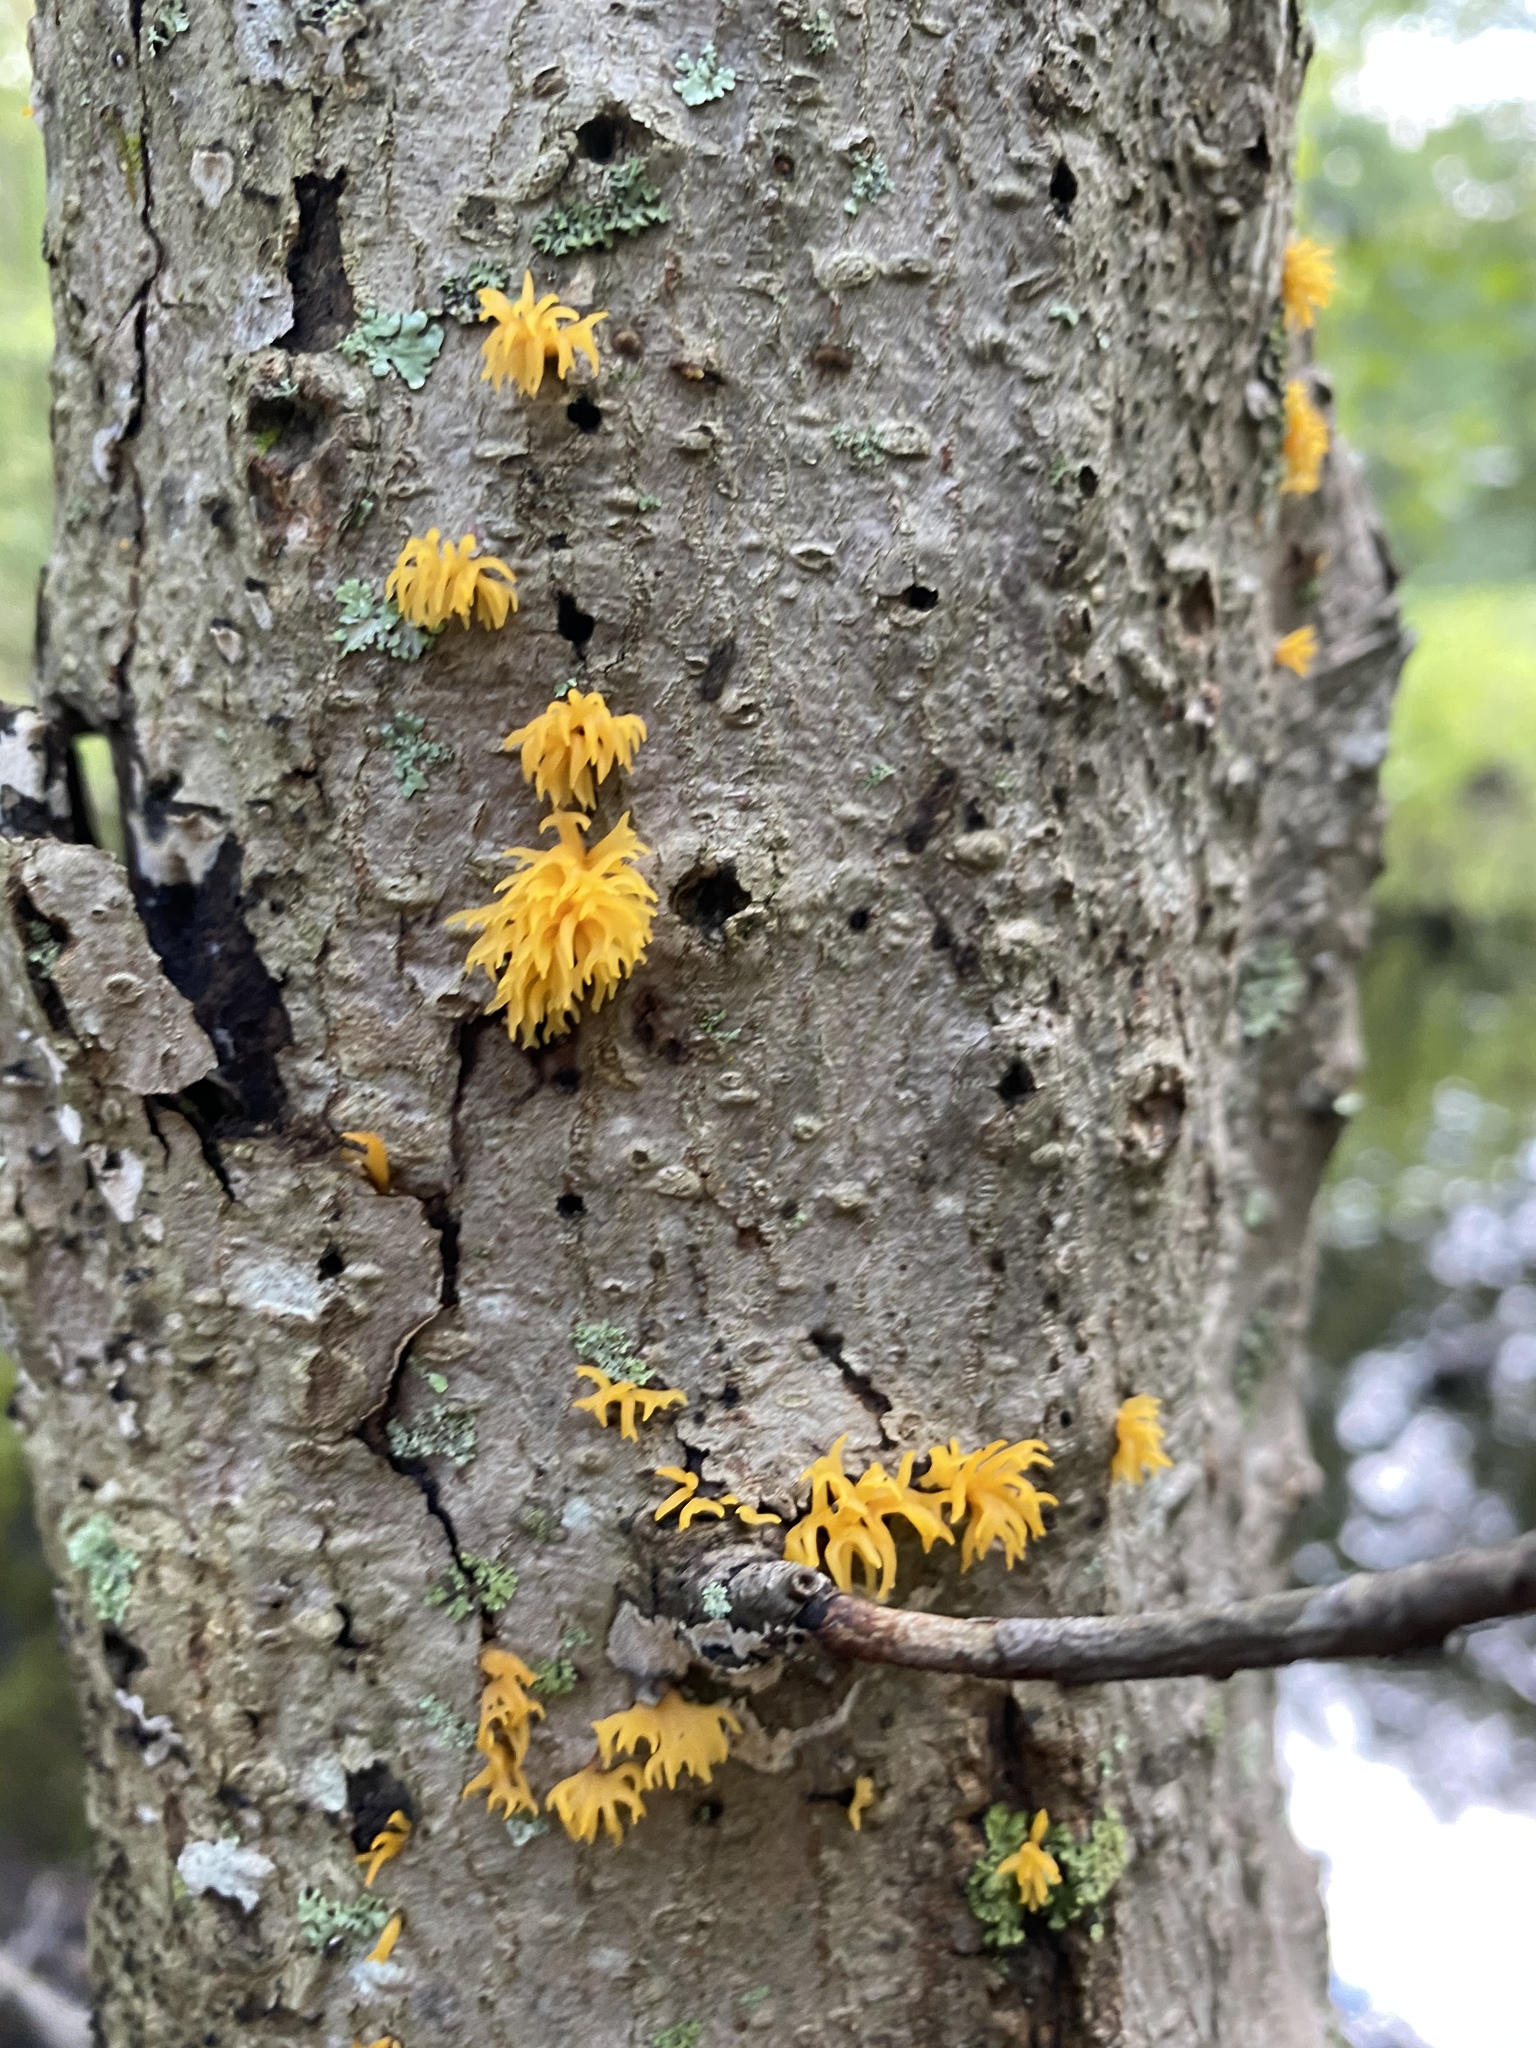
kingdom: Fungi
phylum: Basidiomycota
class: Dacrymycetes
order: Dacrymycetales
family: Dacrymycetaceae
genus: Calocera
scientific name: Calocera cornea
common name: Small stagshorn
